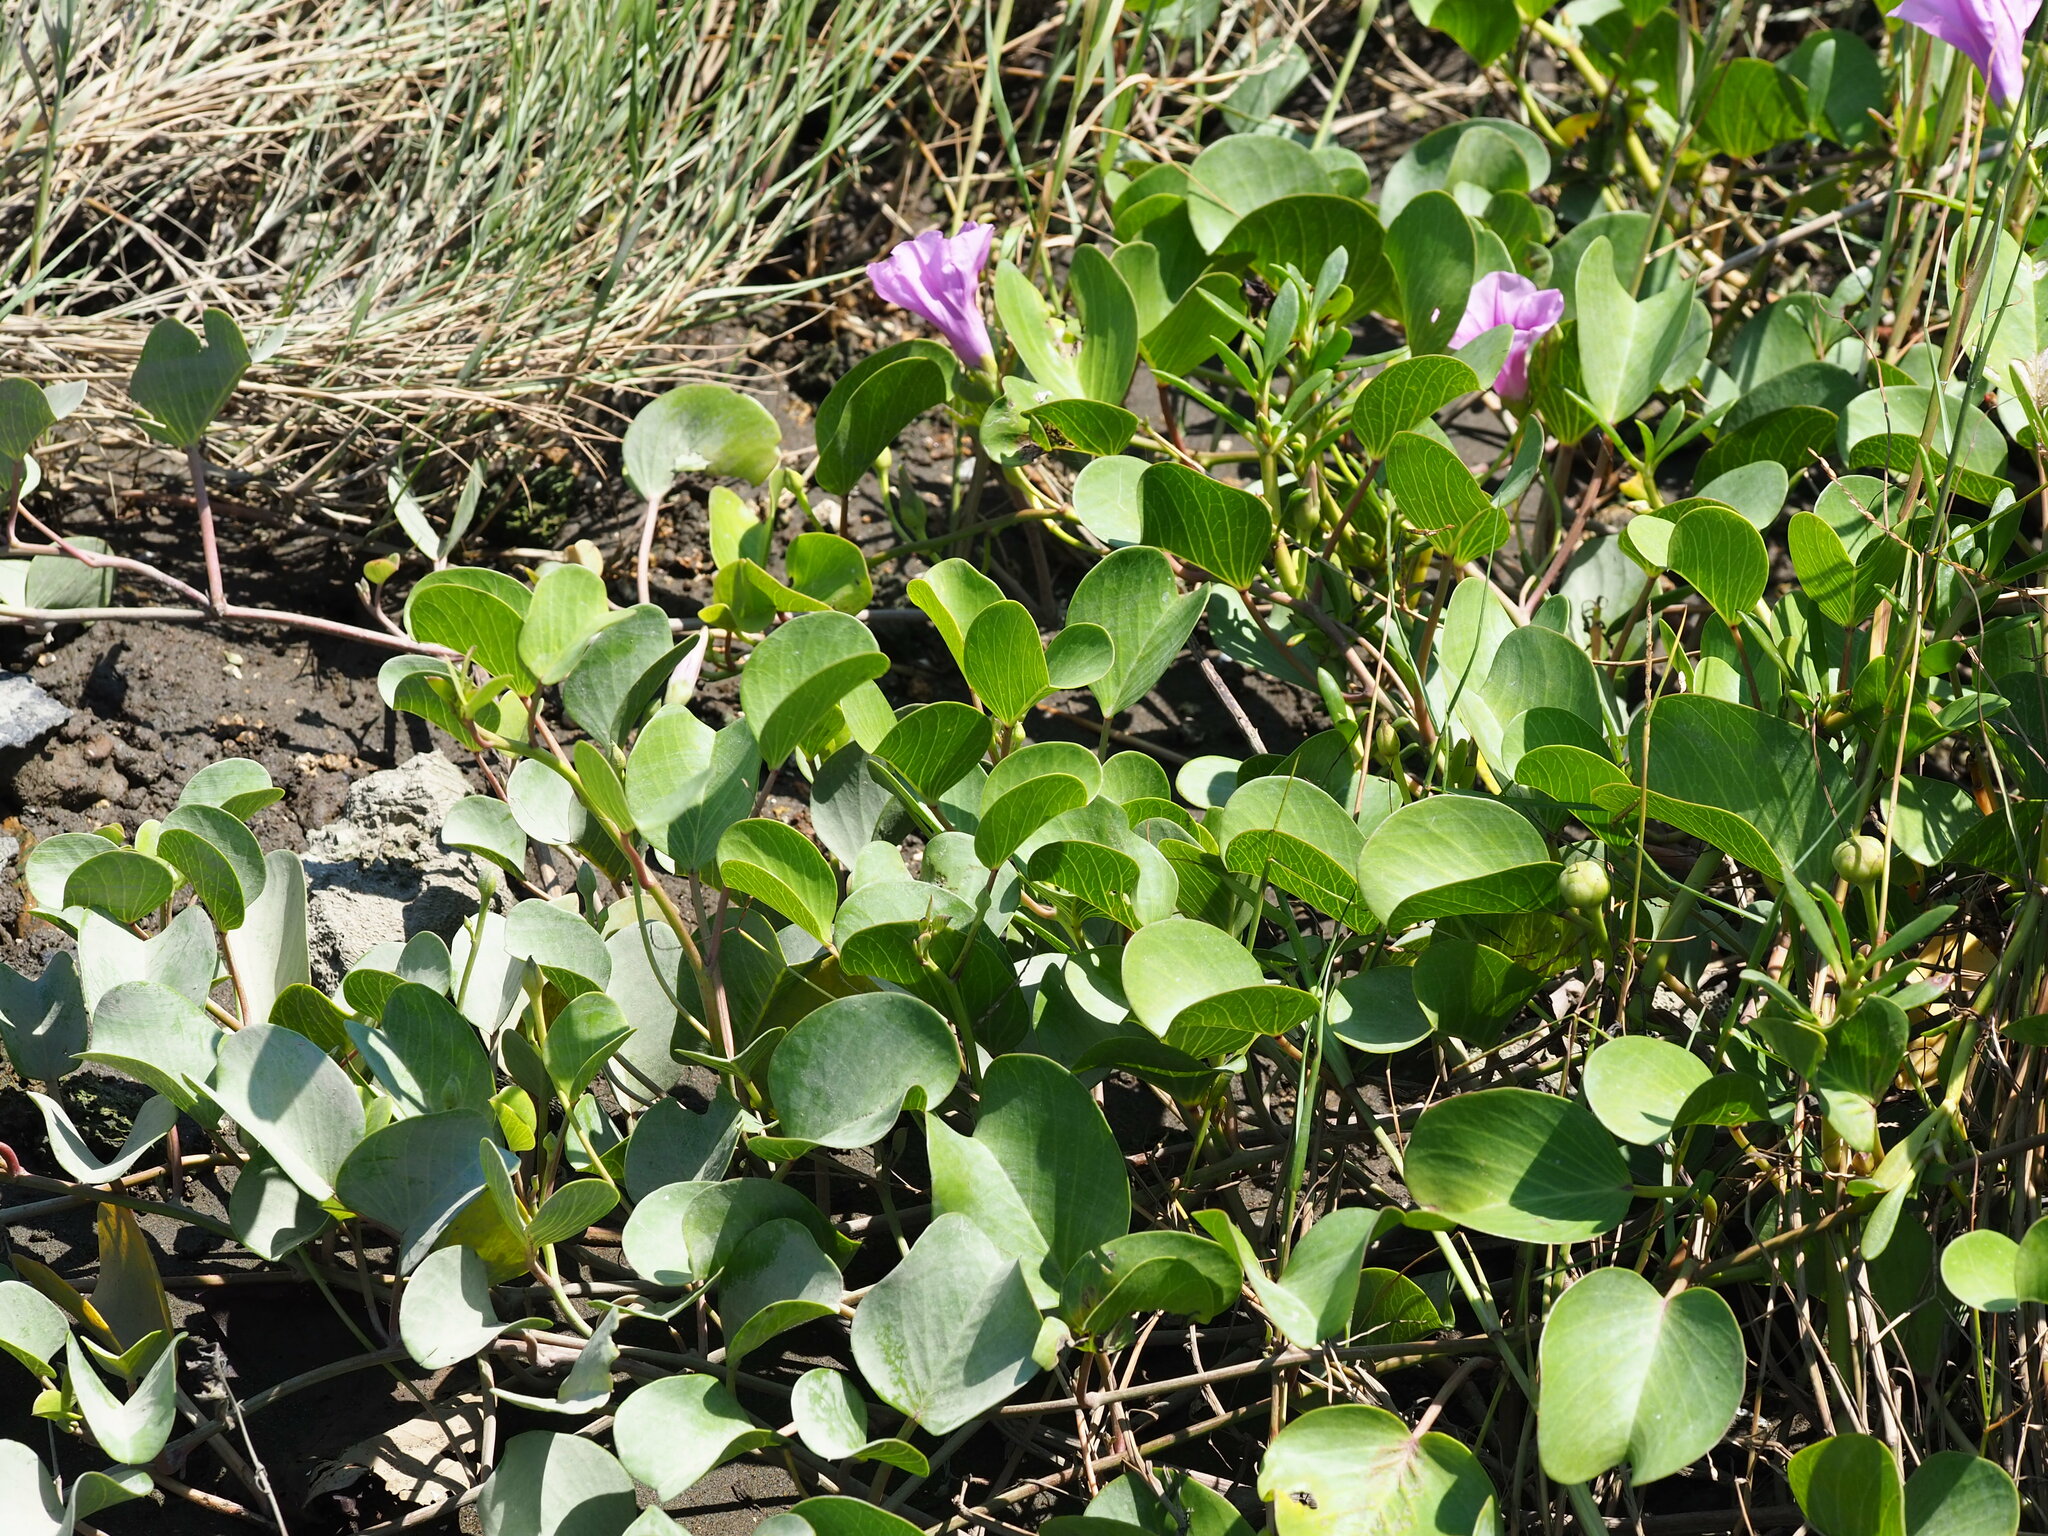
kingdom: Plantae
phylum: Tracheophyta
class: Magnoliopsida
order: Solanales
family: Convolvulaceae
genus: Ipomoea
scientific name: Ipomoea pes-caprae
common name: Beach morning glory
